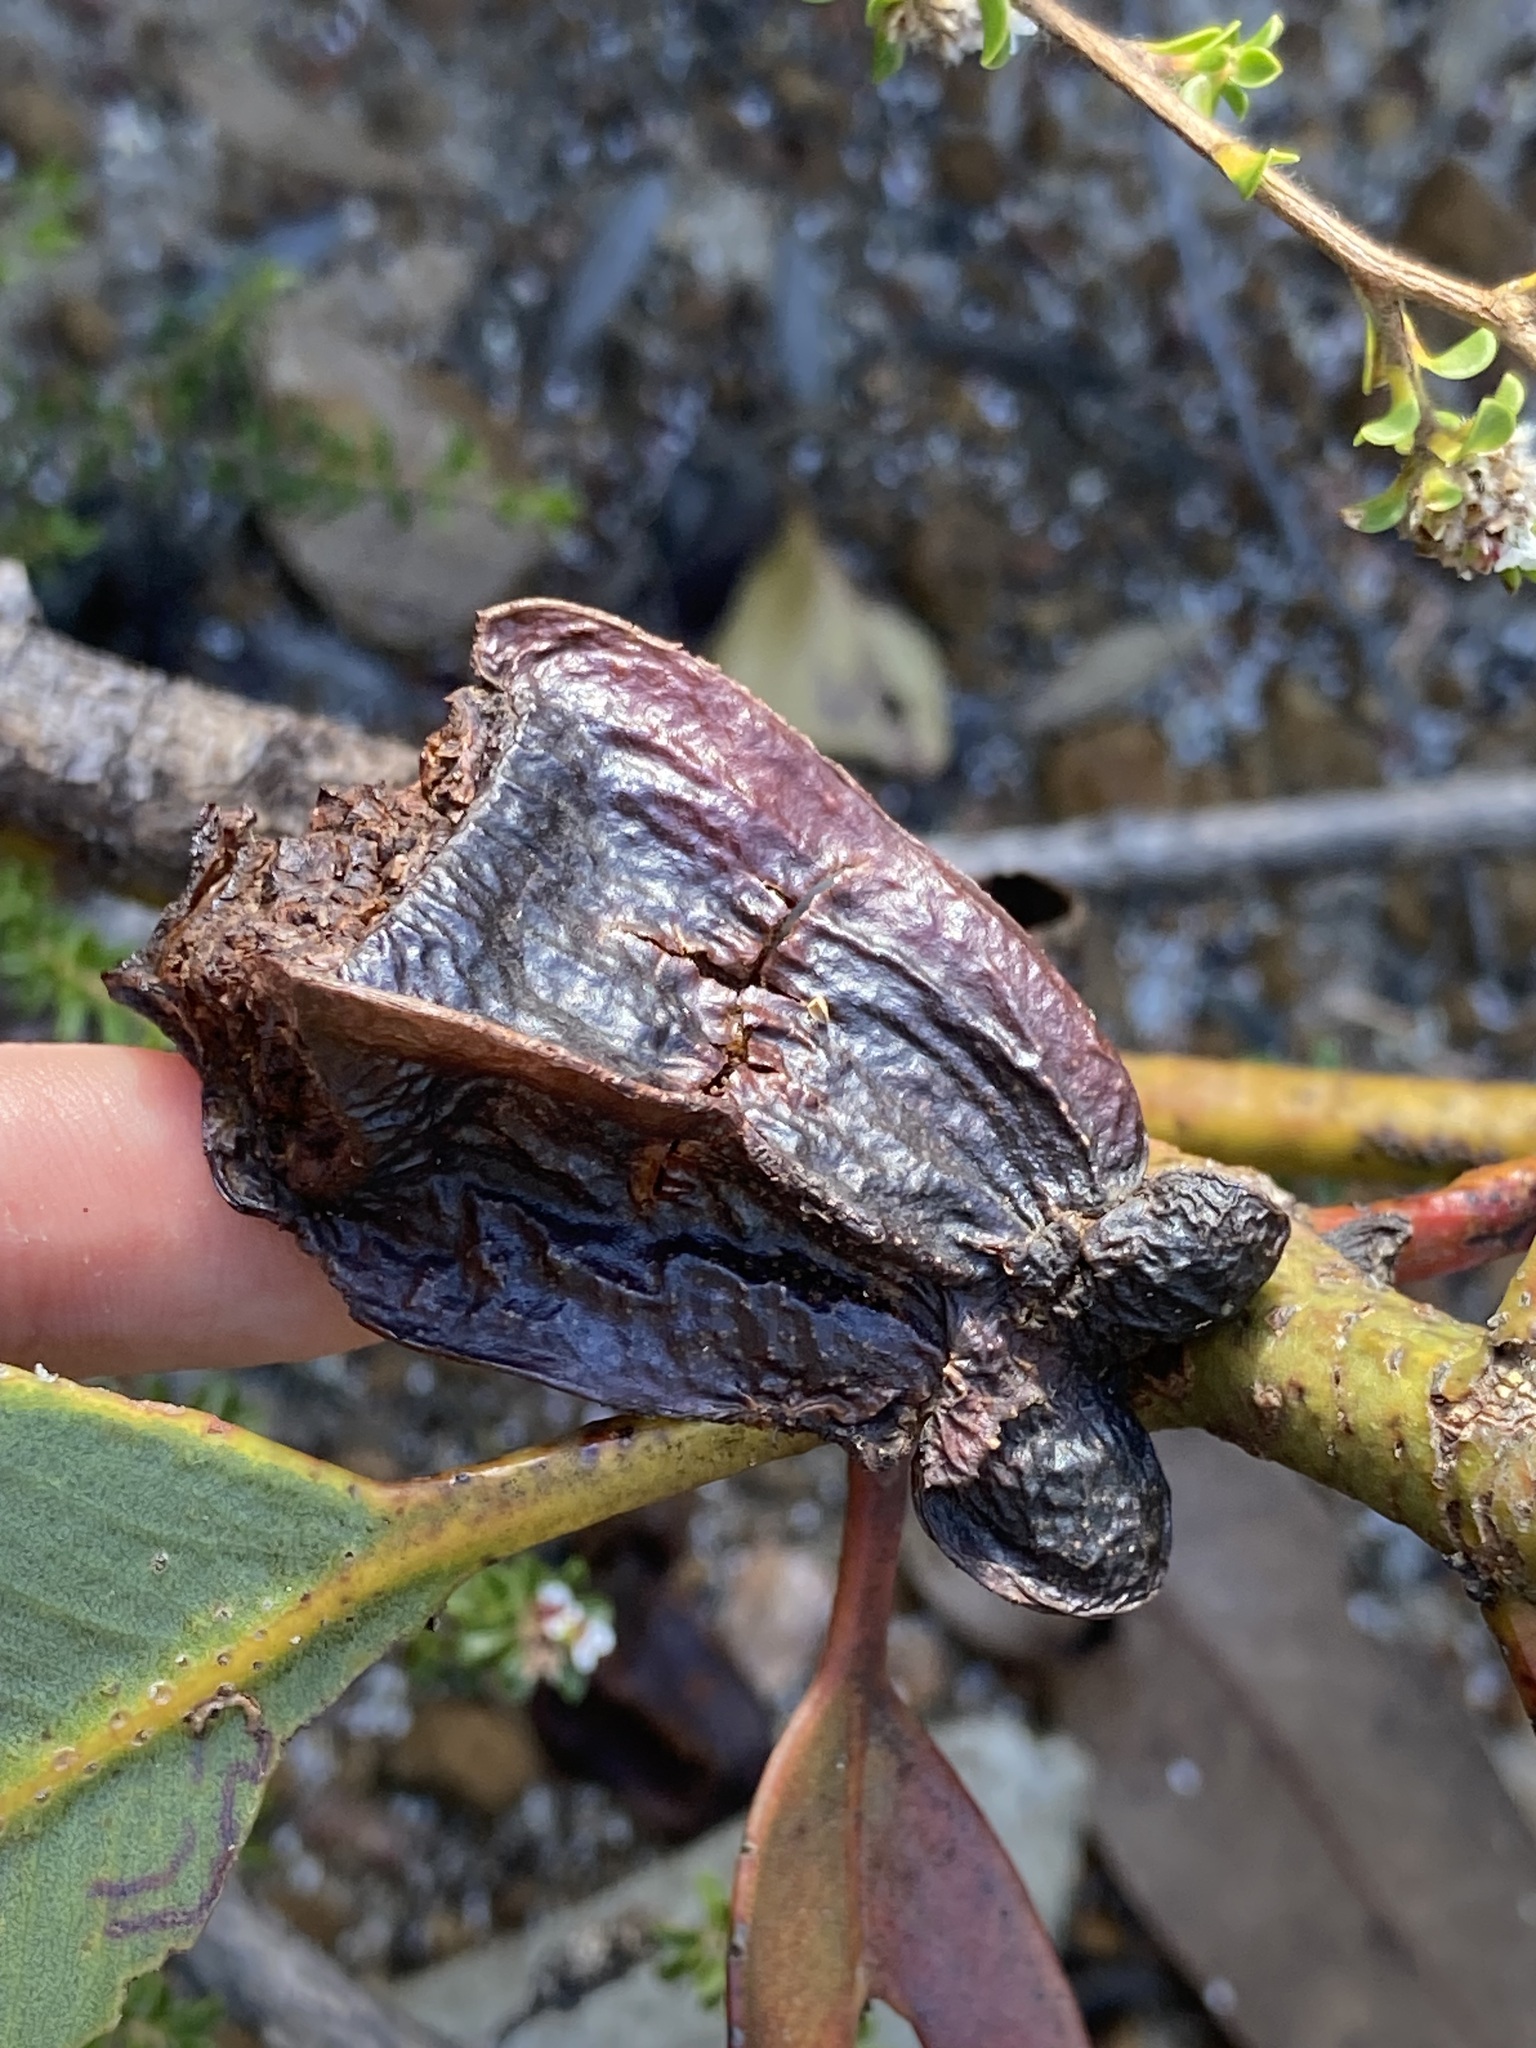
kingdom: Plantae
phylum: Tracheophyta
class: Magnoliopsida
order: Myrtales
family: Myrtaceae
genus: Eucalyptus
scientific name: Eucalyptus tetraptera
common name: Four-wing mallee
